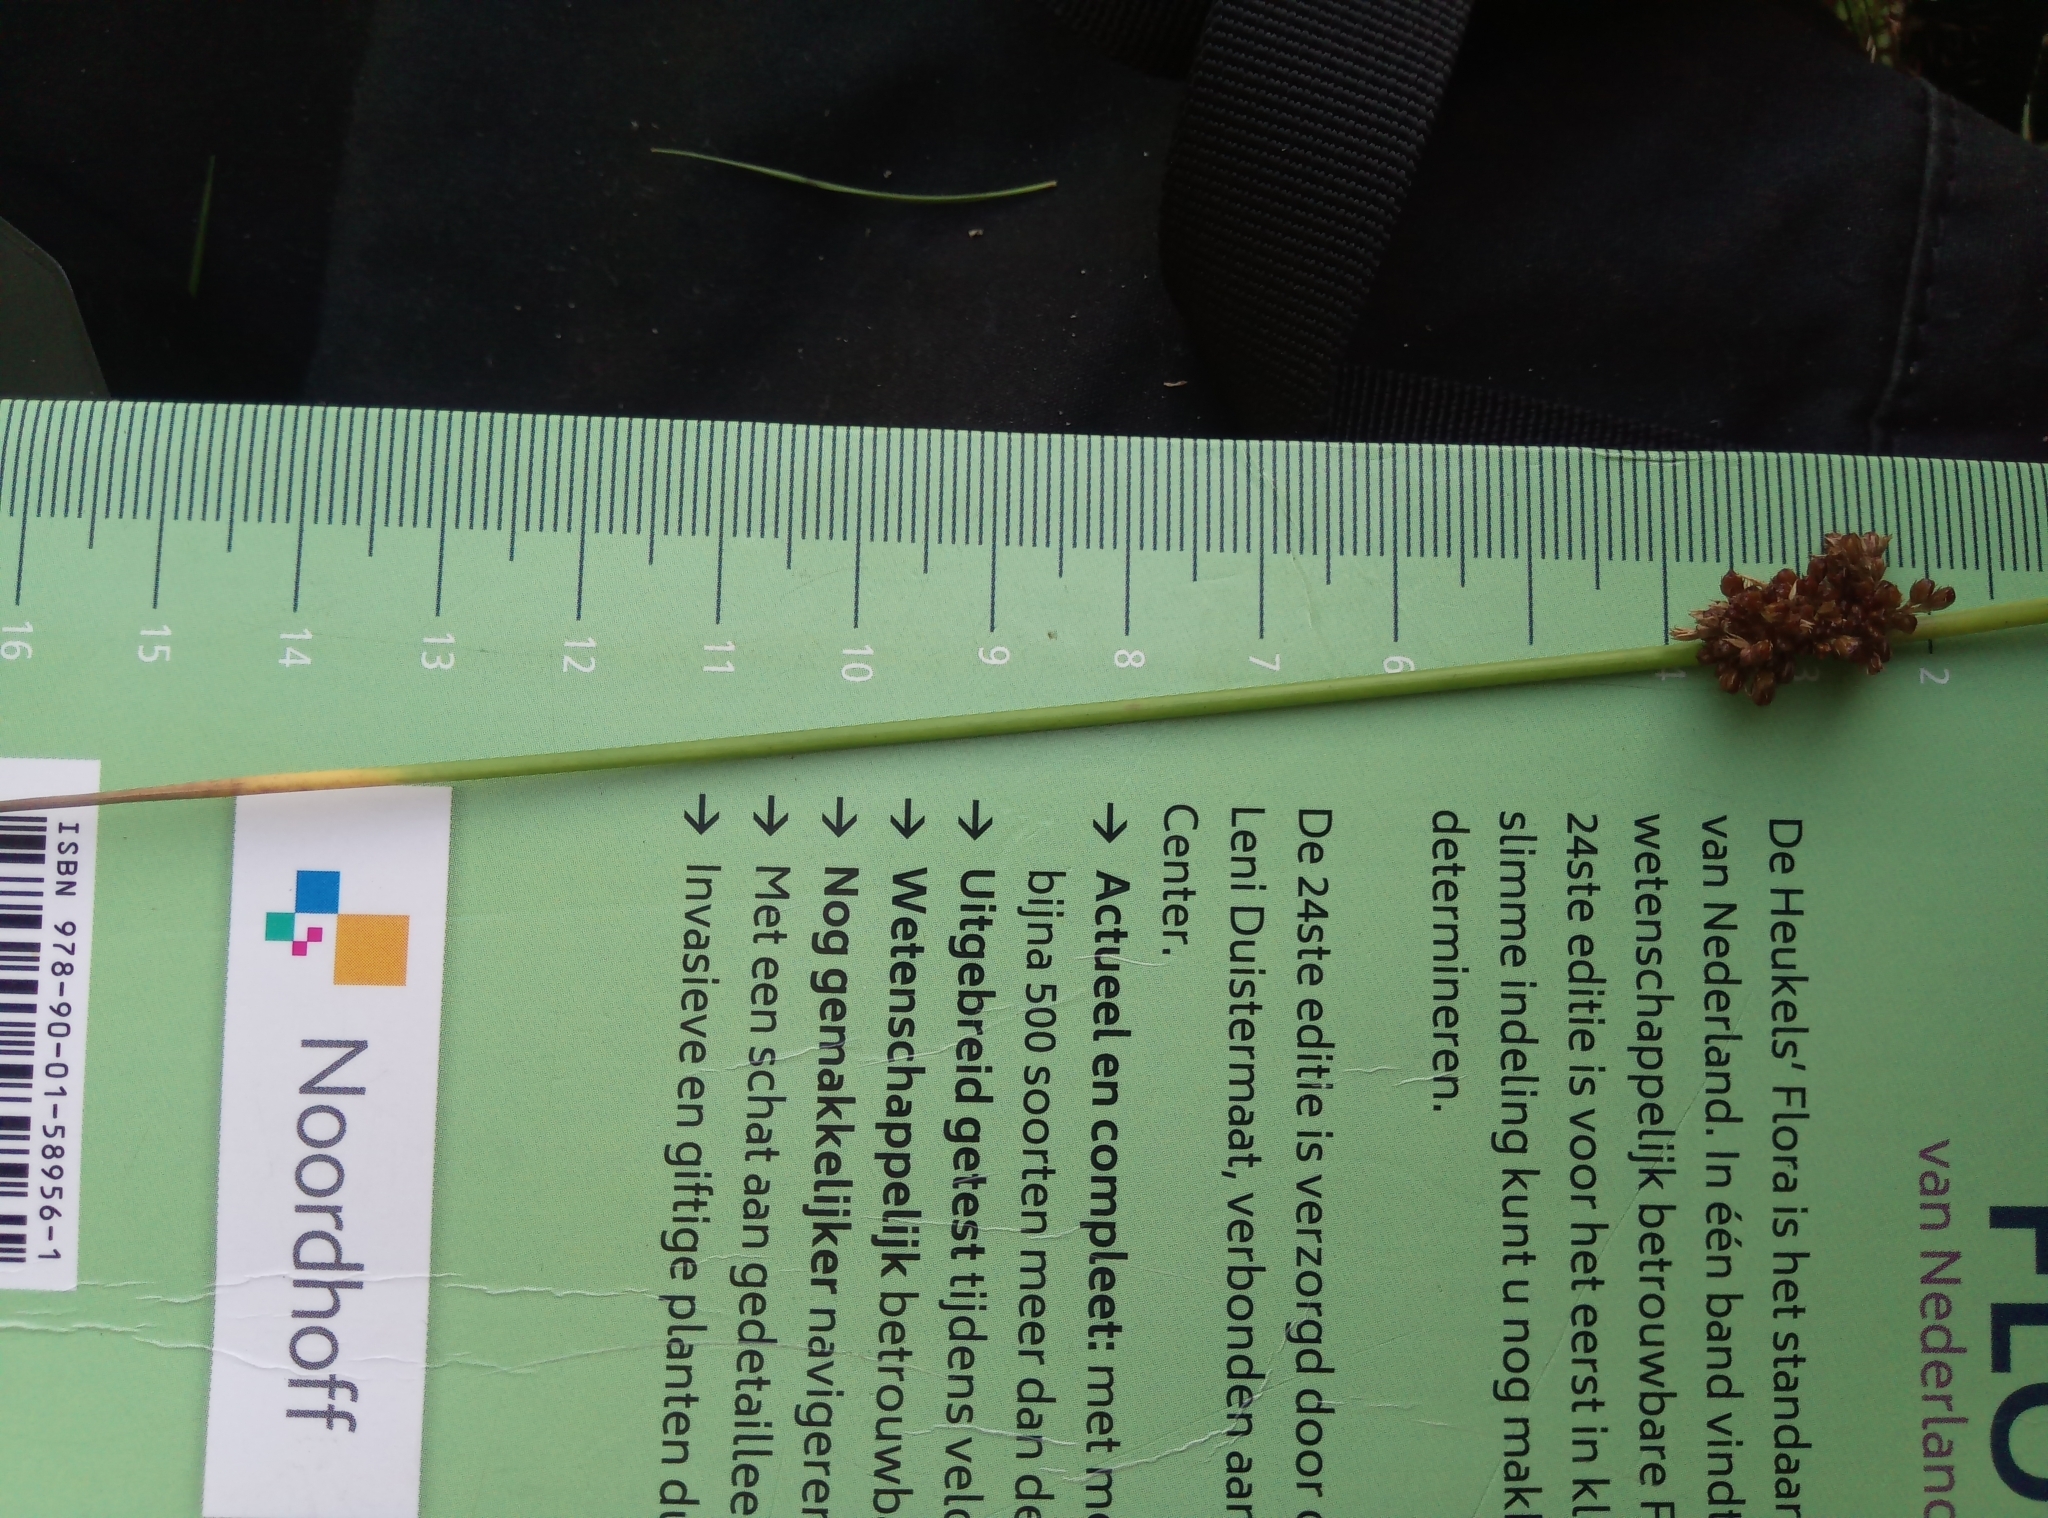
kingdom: Plantae
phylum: Tracheophyta
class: Liliopsida
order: Poales
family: Juncaceae
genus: Juncus
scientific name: Juncus effusus
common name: Soft rush
